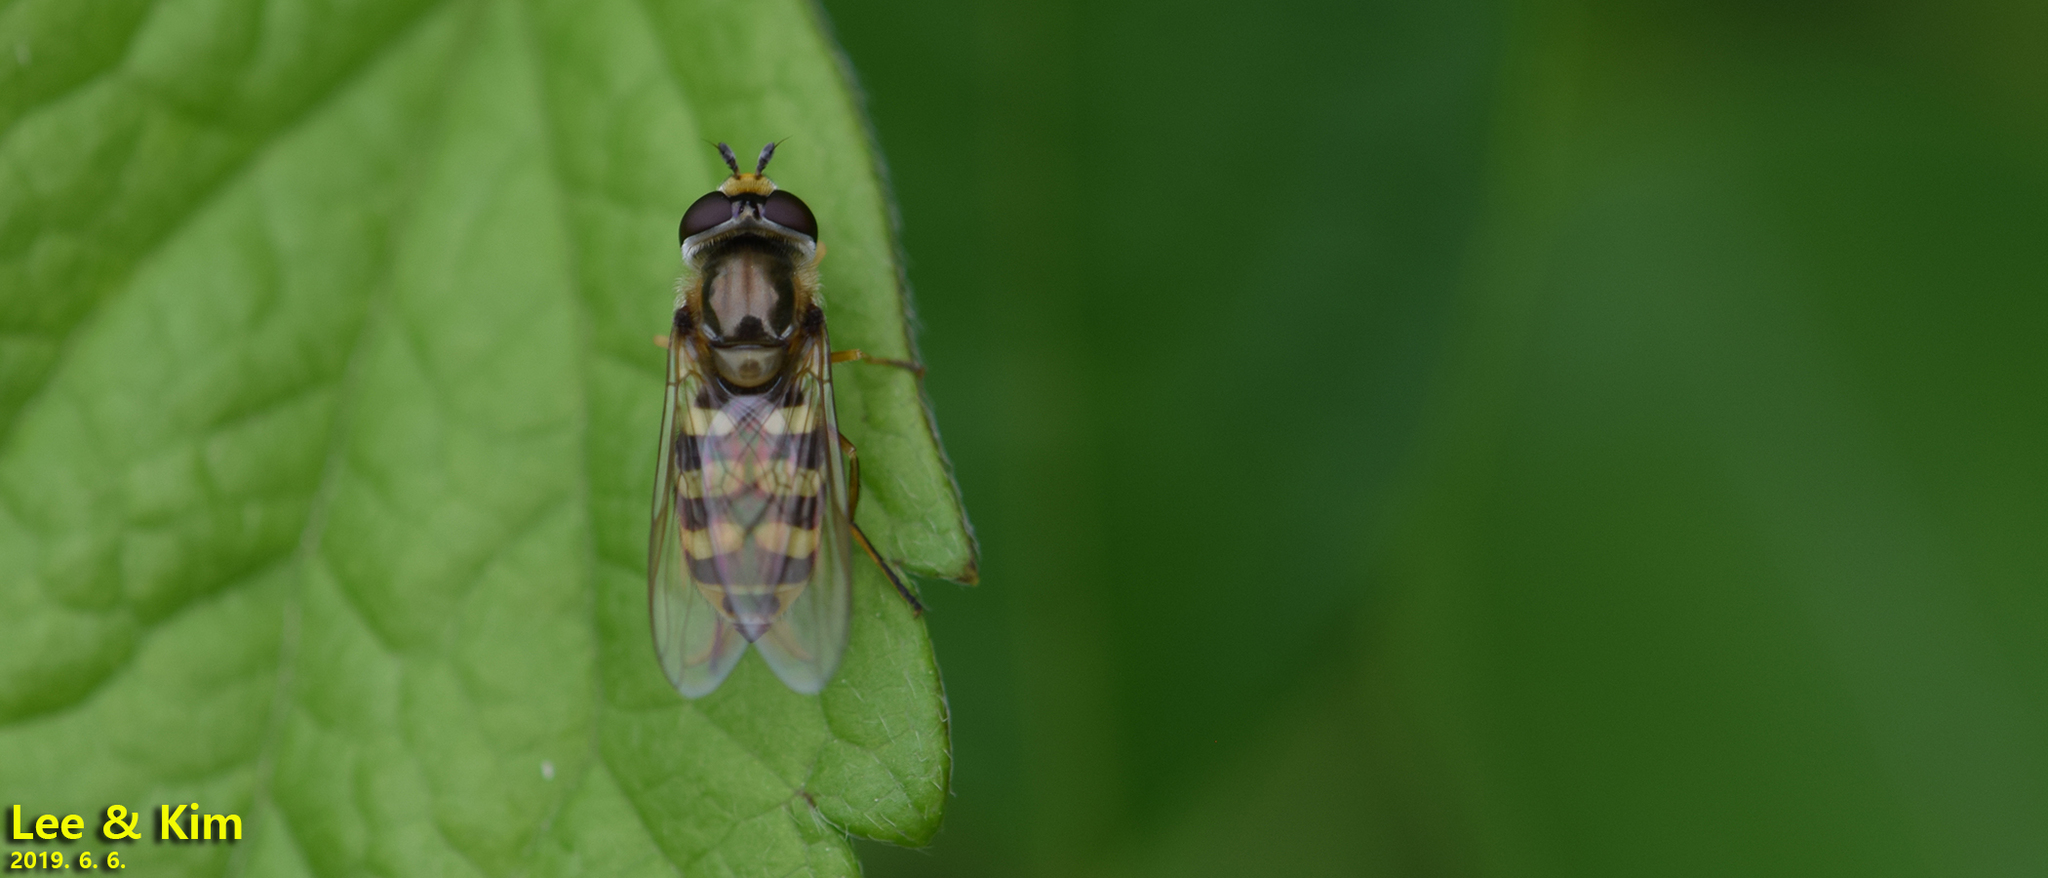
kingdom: Animalia
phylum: Arthropoda
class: Insecta
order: Diptera
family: Syrphidae
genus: Eupeodes
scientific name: Eupeodes corollae
